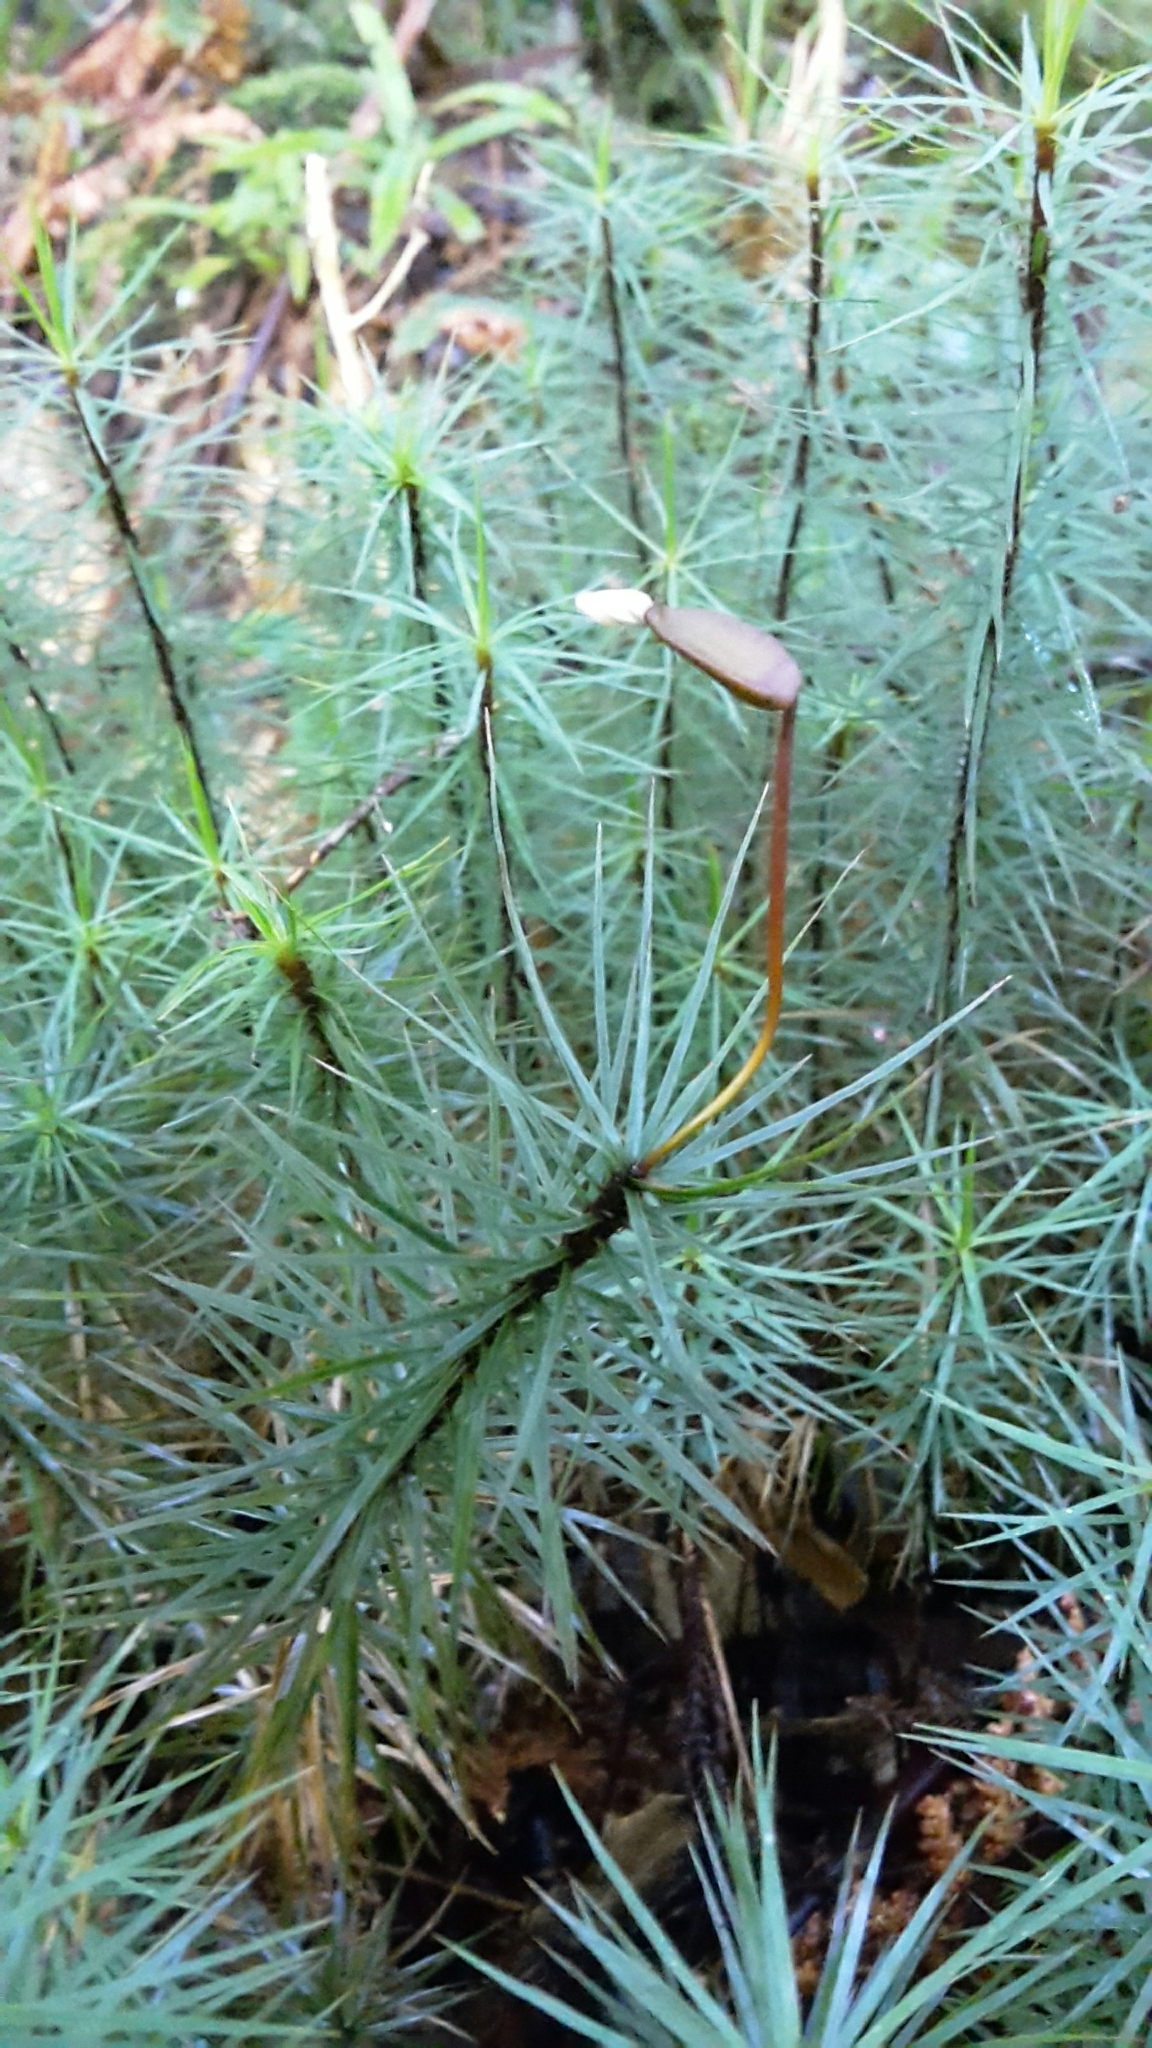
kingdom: Plantae
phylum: Bryophyta
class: Polytrichopsida
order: Polytrichales
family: Polytrichaceae
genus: Dawsonia
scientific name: Dawsonia superba
